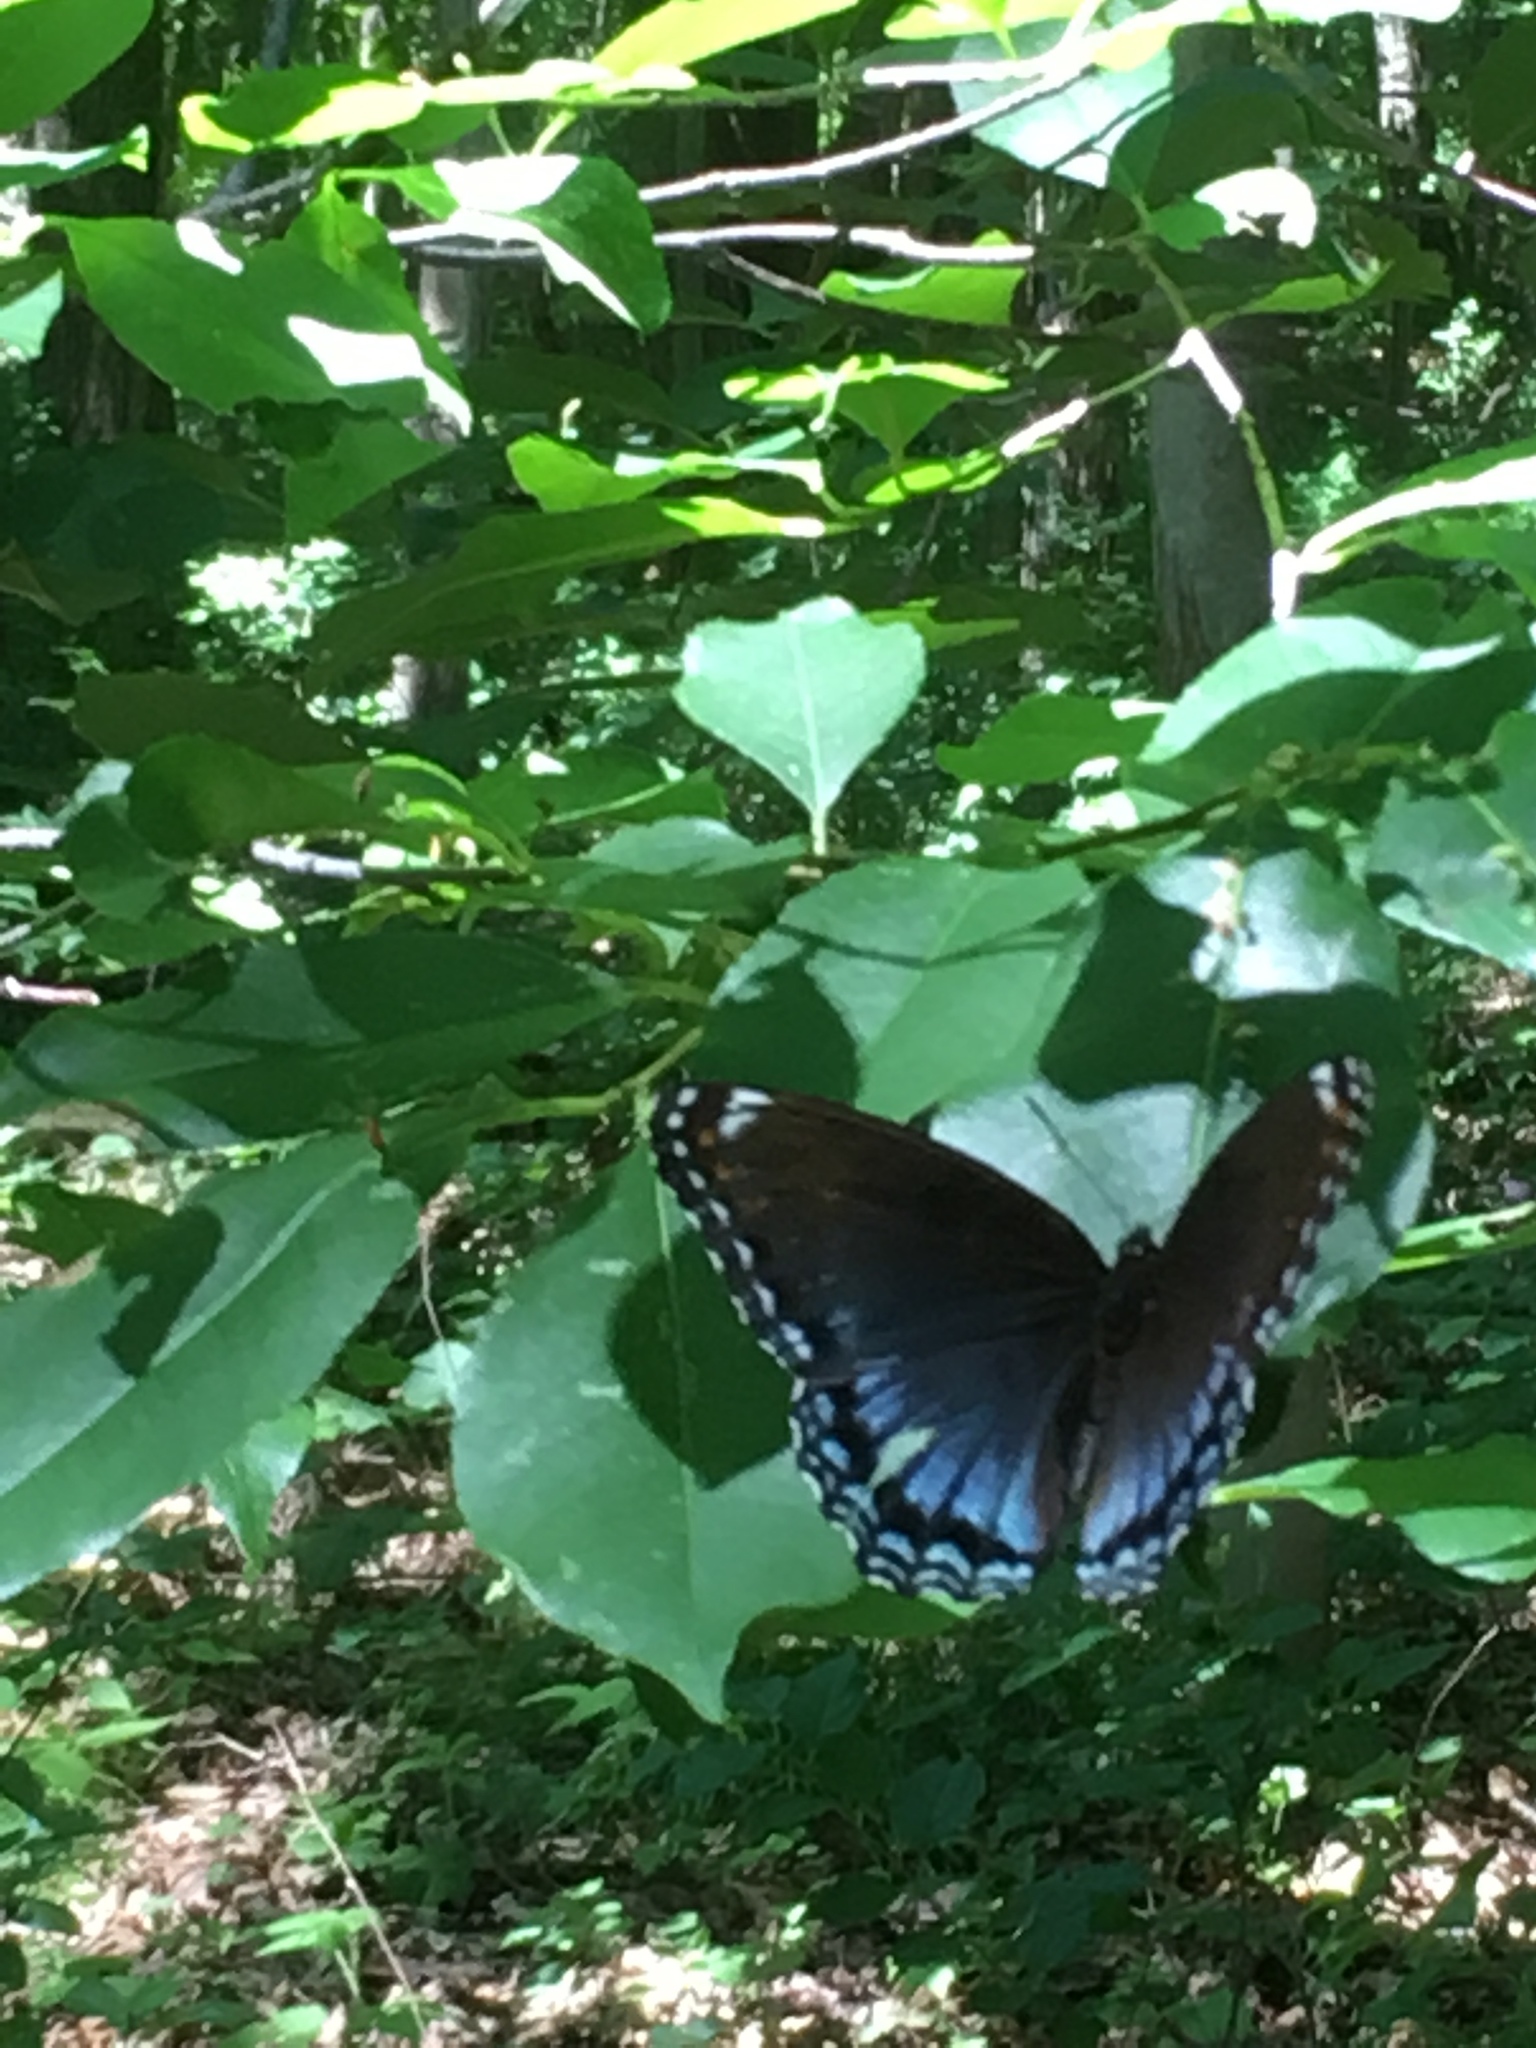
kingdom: Animalia
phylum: Arthropoda
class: Insecta
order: Lepidoptera
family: Nymphalidae
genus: Limenitis
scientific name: Limenitis arthemis
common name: Red-spotted admiral
